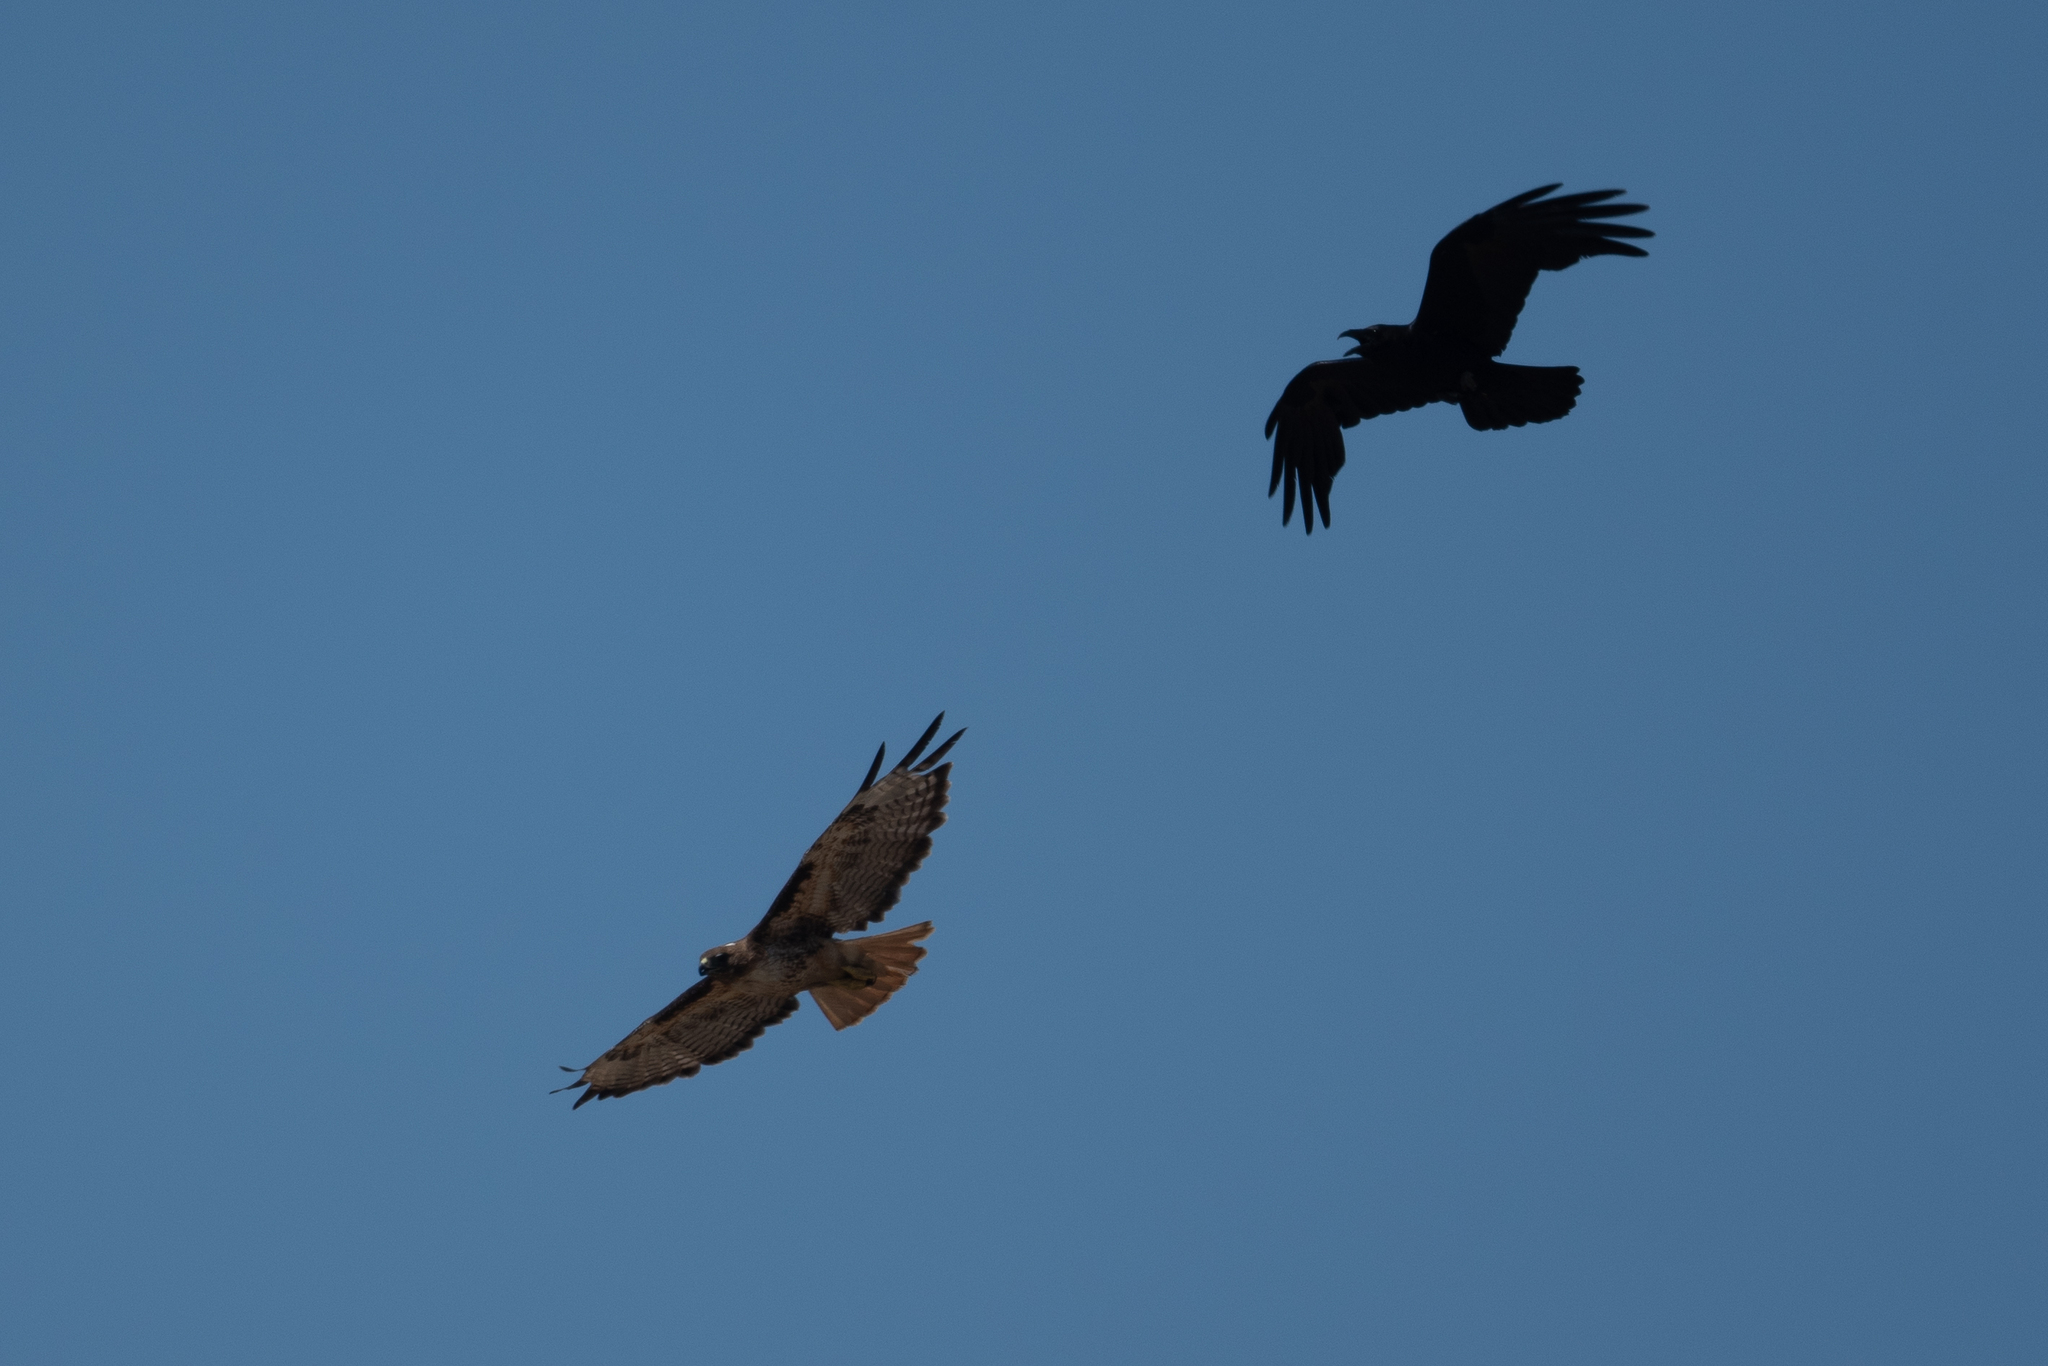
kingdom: Animalia
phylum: Chordata
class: Aves
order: Accipitriformes
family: Accipitridae
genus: Buteo
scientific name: Buteo jamaicensis
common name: Red-tailed hawk
